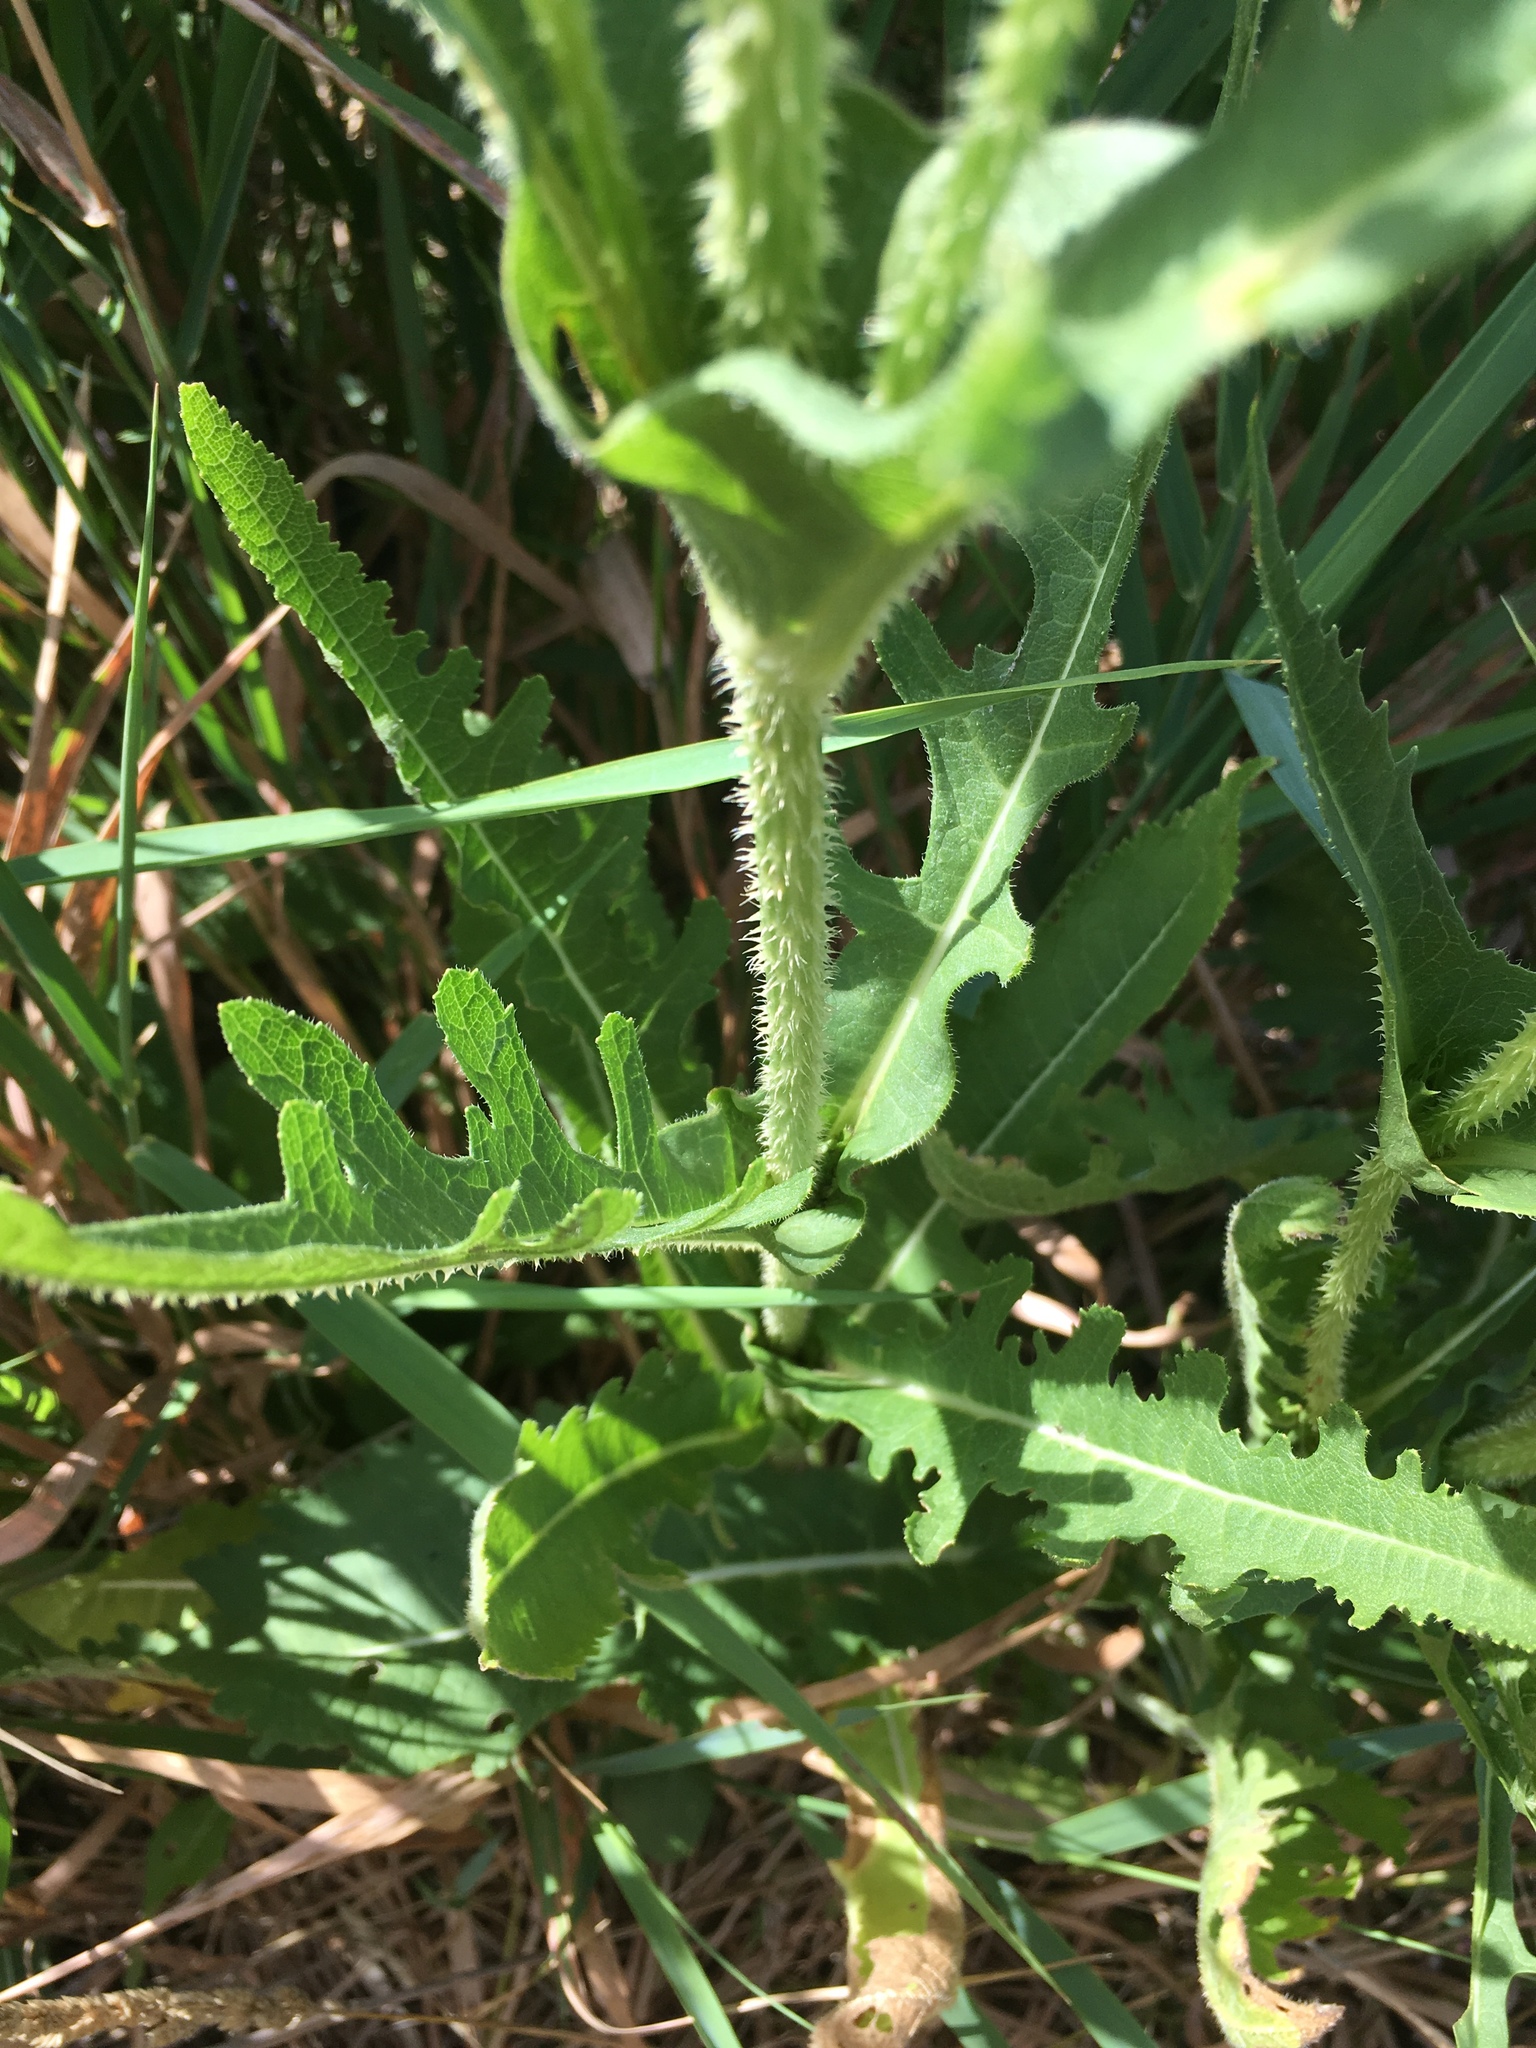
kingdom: Plantae
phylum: Tracheophyta
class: Magnoliopsida
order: Dipsacales
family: Caprifoliaceae
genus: Dipsacus
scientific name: Dipsacus laciniatus
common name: Cut-leaved teasel
